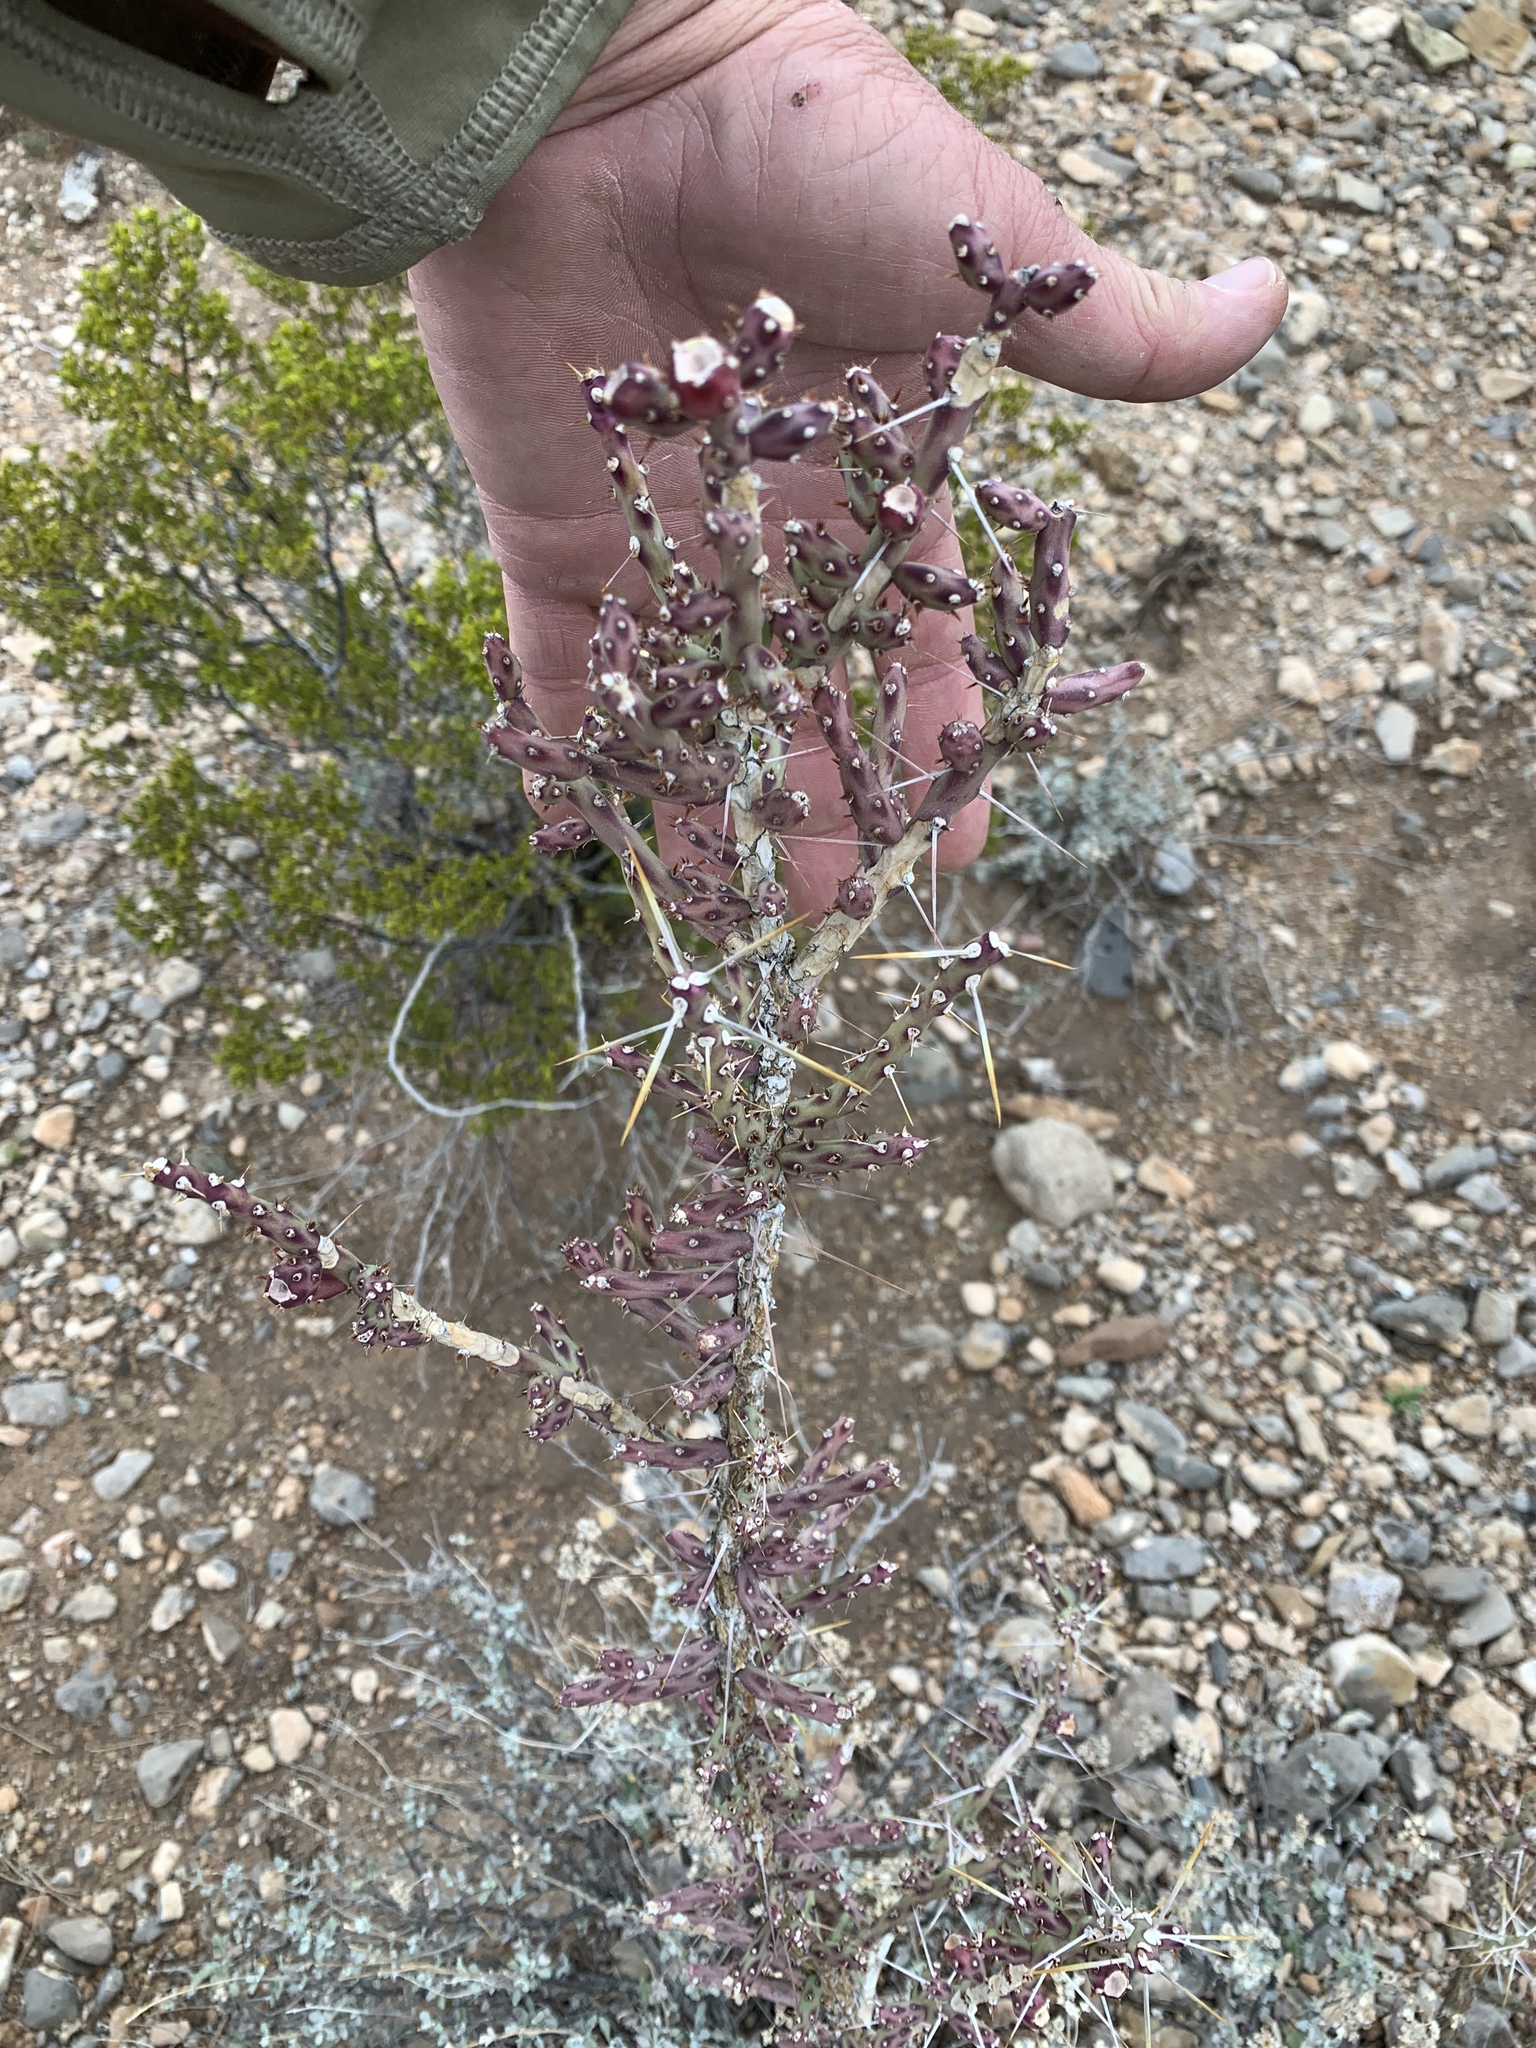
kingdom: Plantae
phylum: Tracheophyta
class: Magnoliopsida
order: Caryophyllales
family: Cactaceae
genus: Cylindropuntia
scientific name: Cylindropuntia leptocaulis
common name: Christmas cactus
